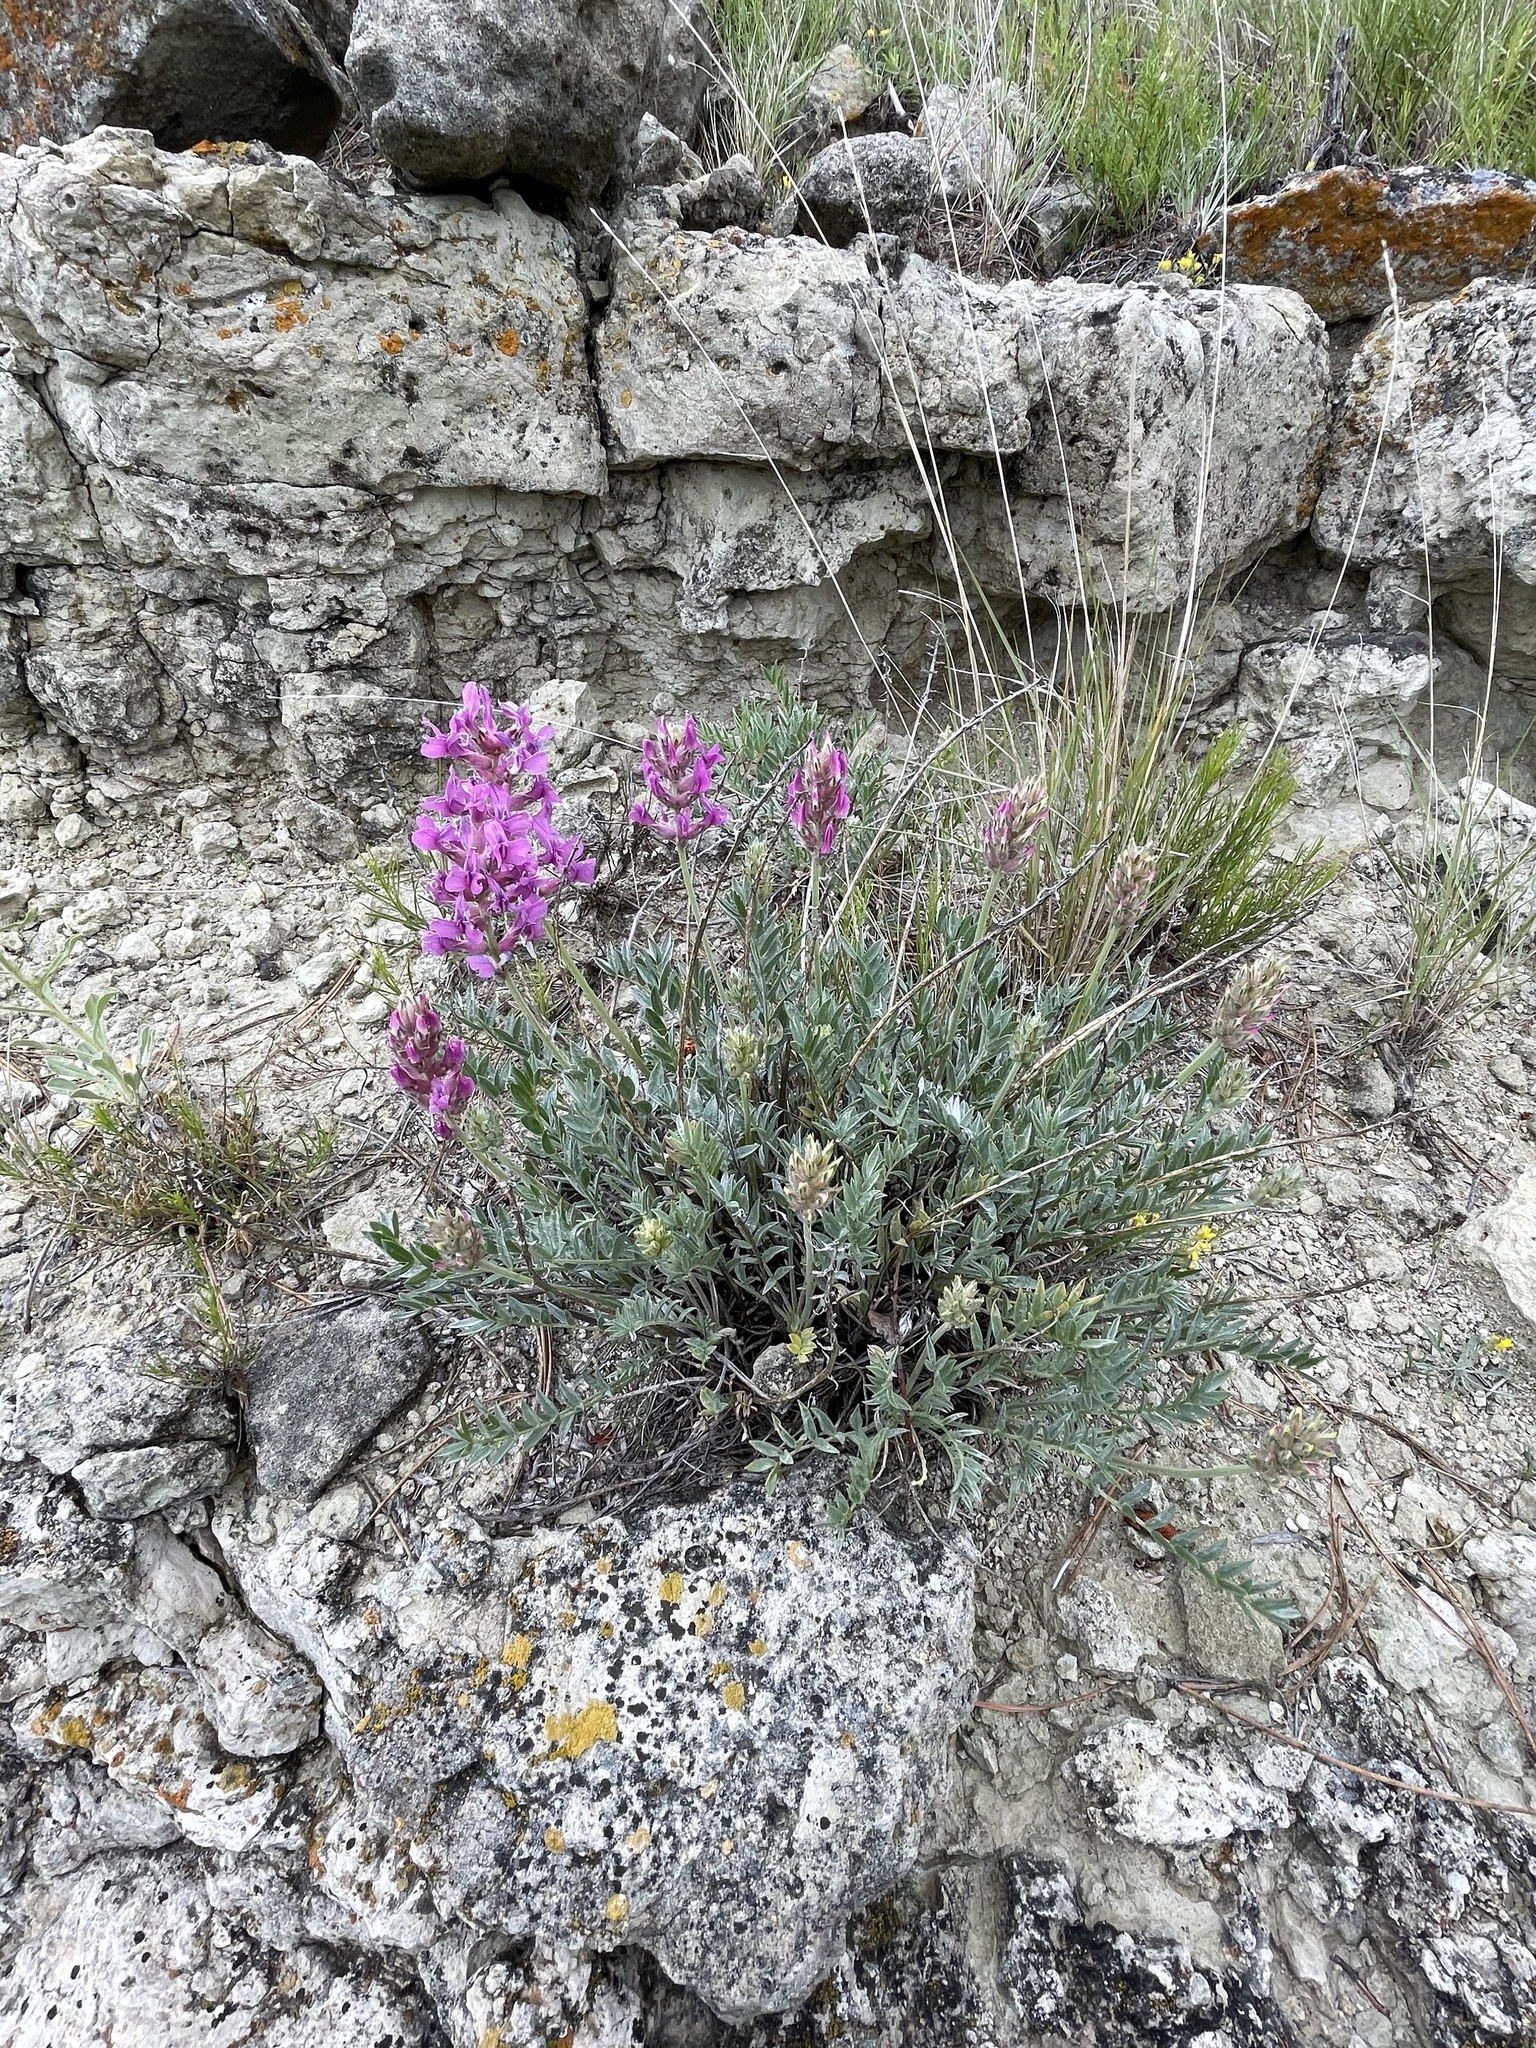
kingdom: Plantae
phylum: Tracheophyta
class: Magnoliopsida
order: Fabales
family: Fabaceae
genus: Oxytropis
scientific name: Oxytropis besseyi
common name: Bessey's locoweed
